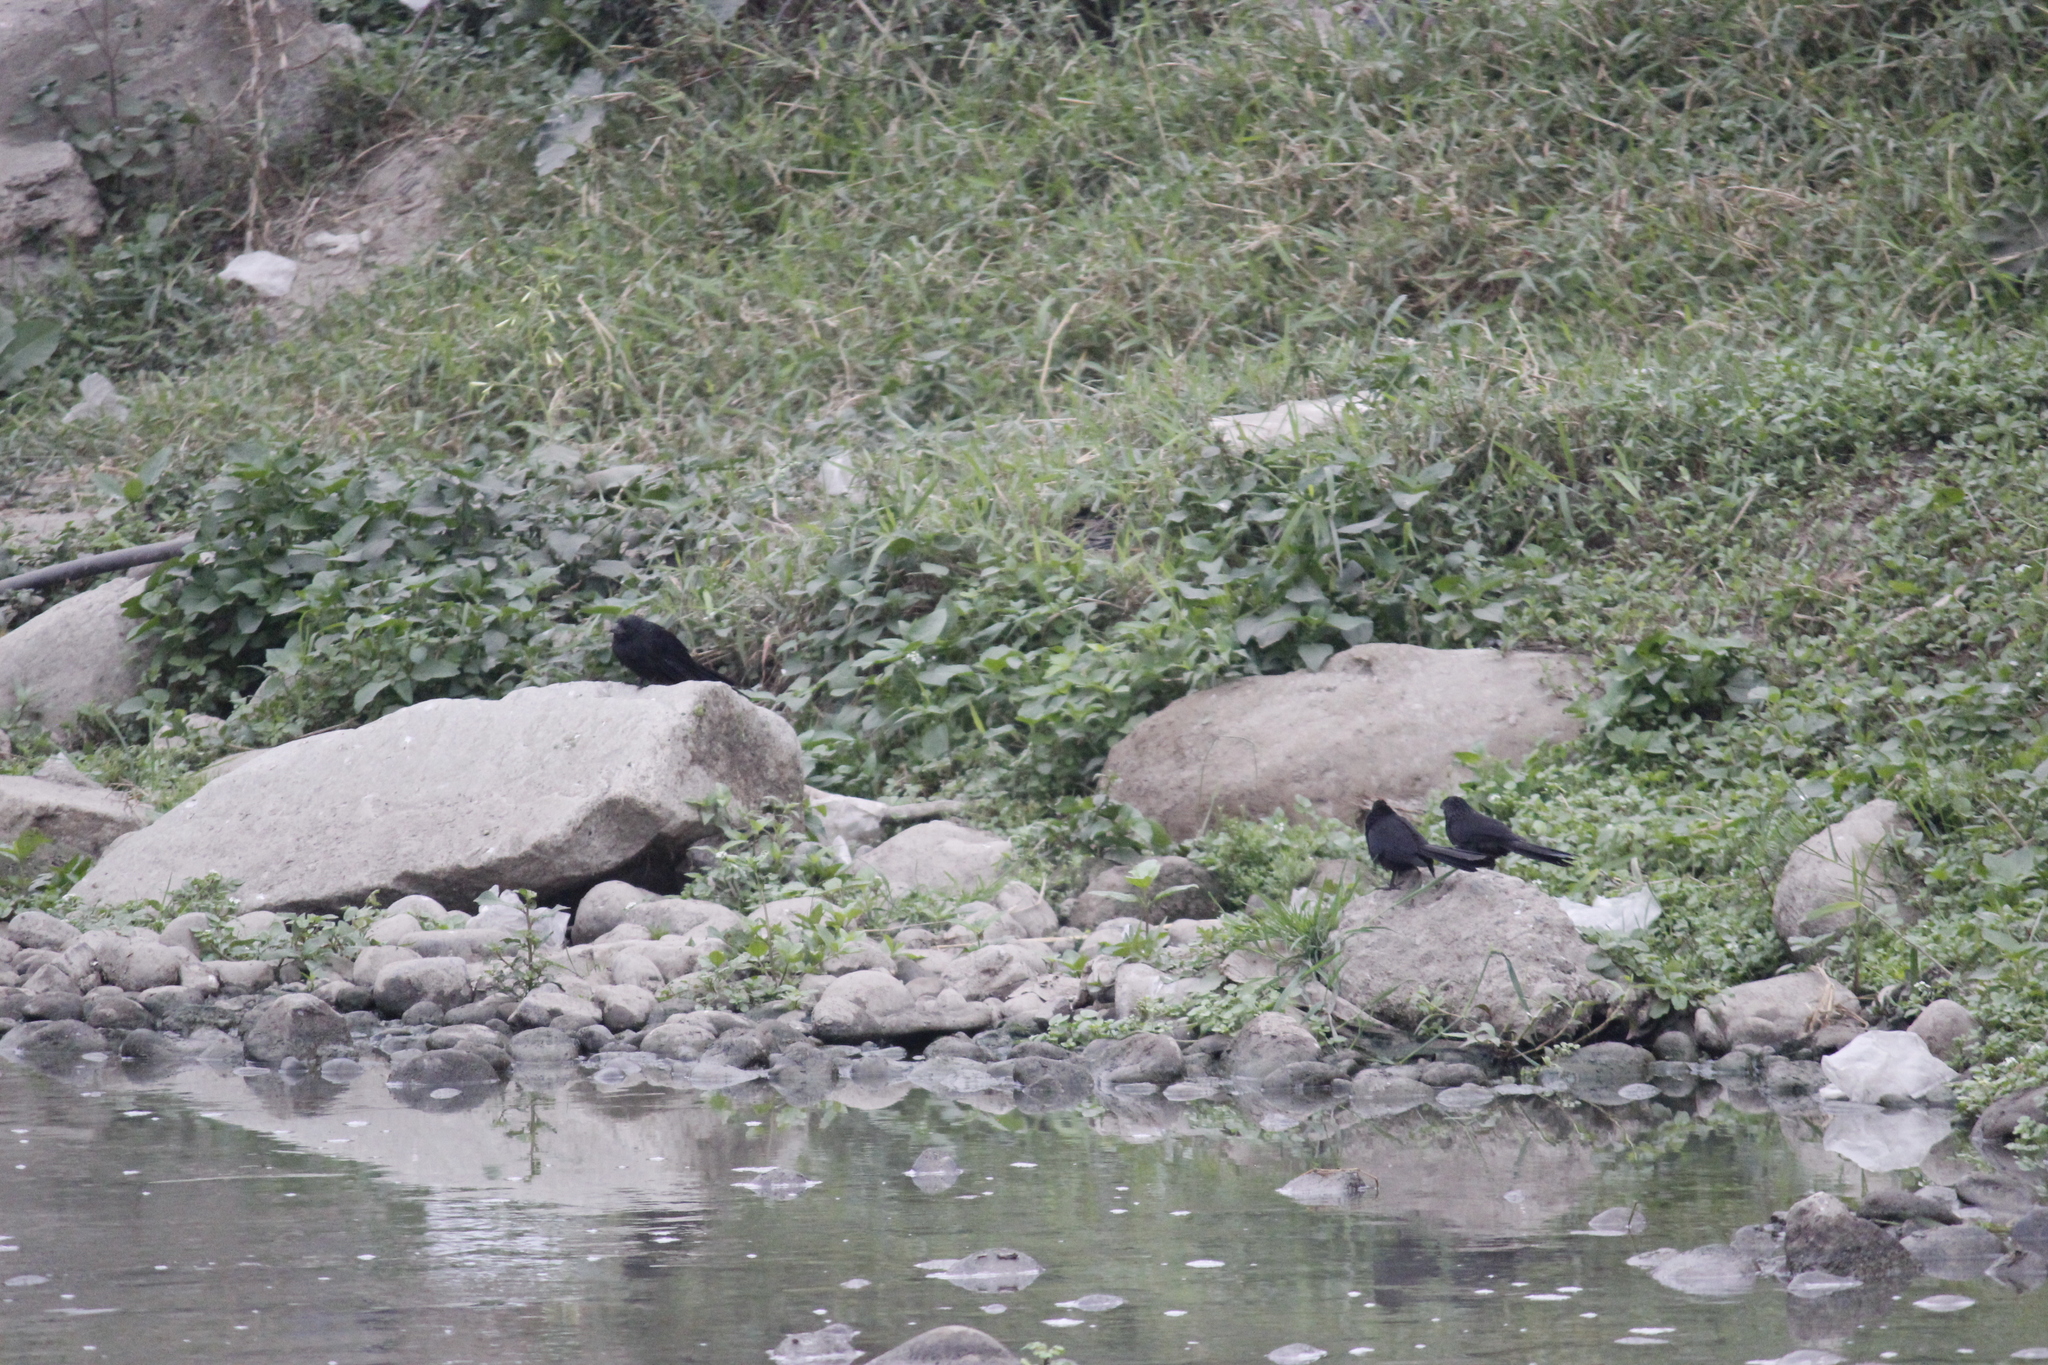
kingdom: Animalia
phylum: Chordata
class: Aves
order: Cuculiformes
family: Cuculidae
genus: Crotophaga
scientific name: Crotophaga sulcirostris
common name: Groove-billed ani
